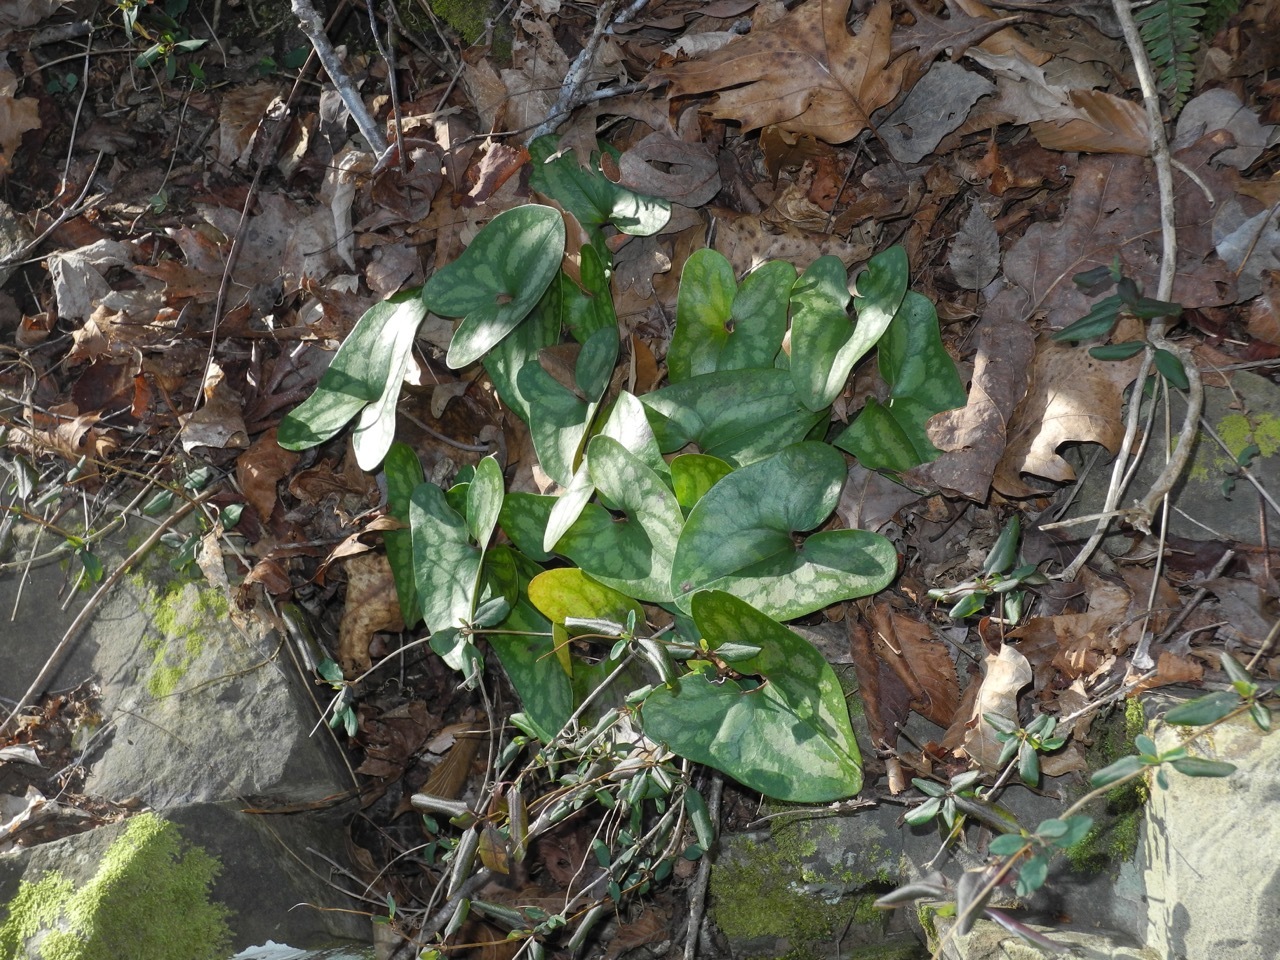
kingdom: Plantae
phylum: Tracheophyta
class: Magnoliopsida
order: Piperales
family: Aristolochiaceae
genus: Hexastylis
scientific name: Hexastylis arifolia
